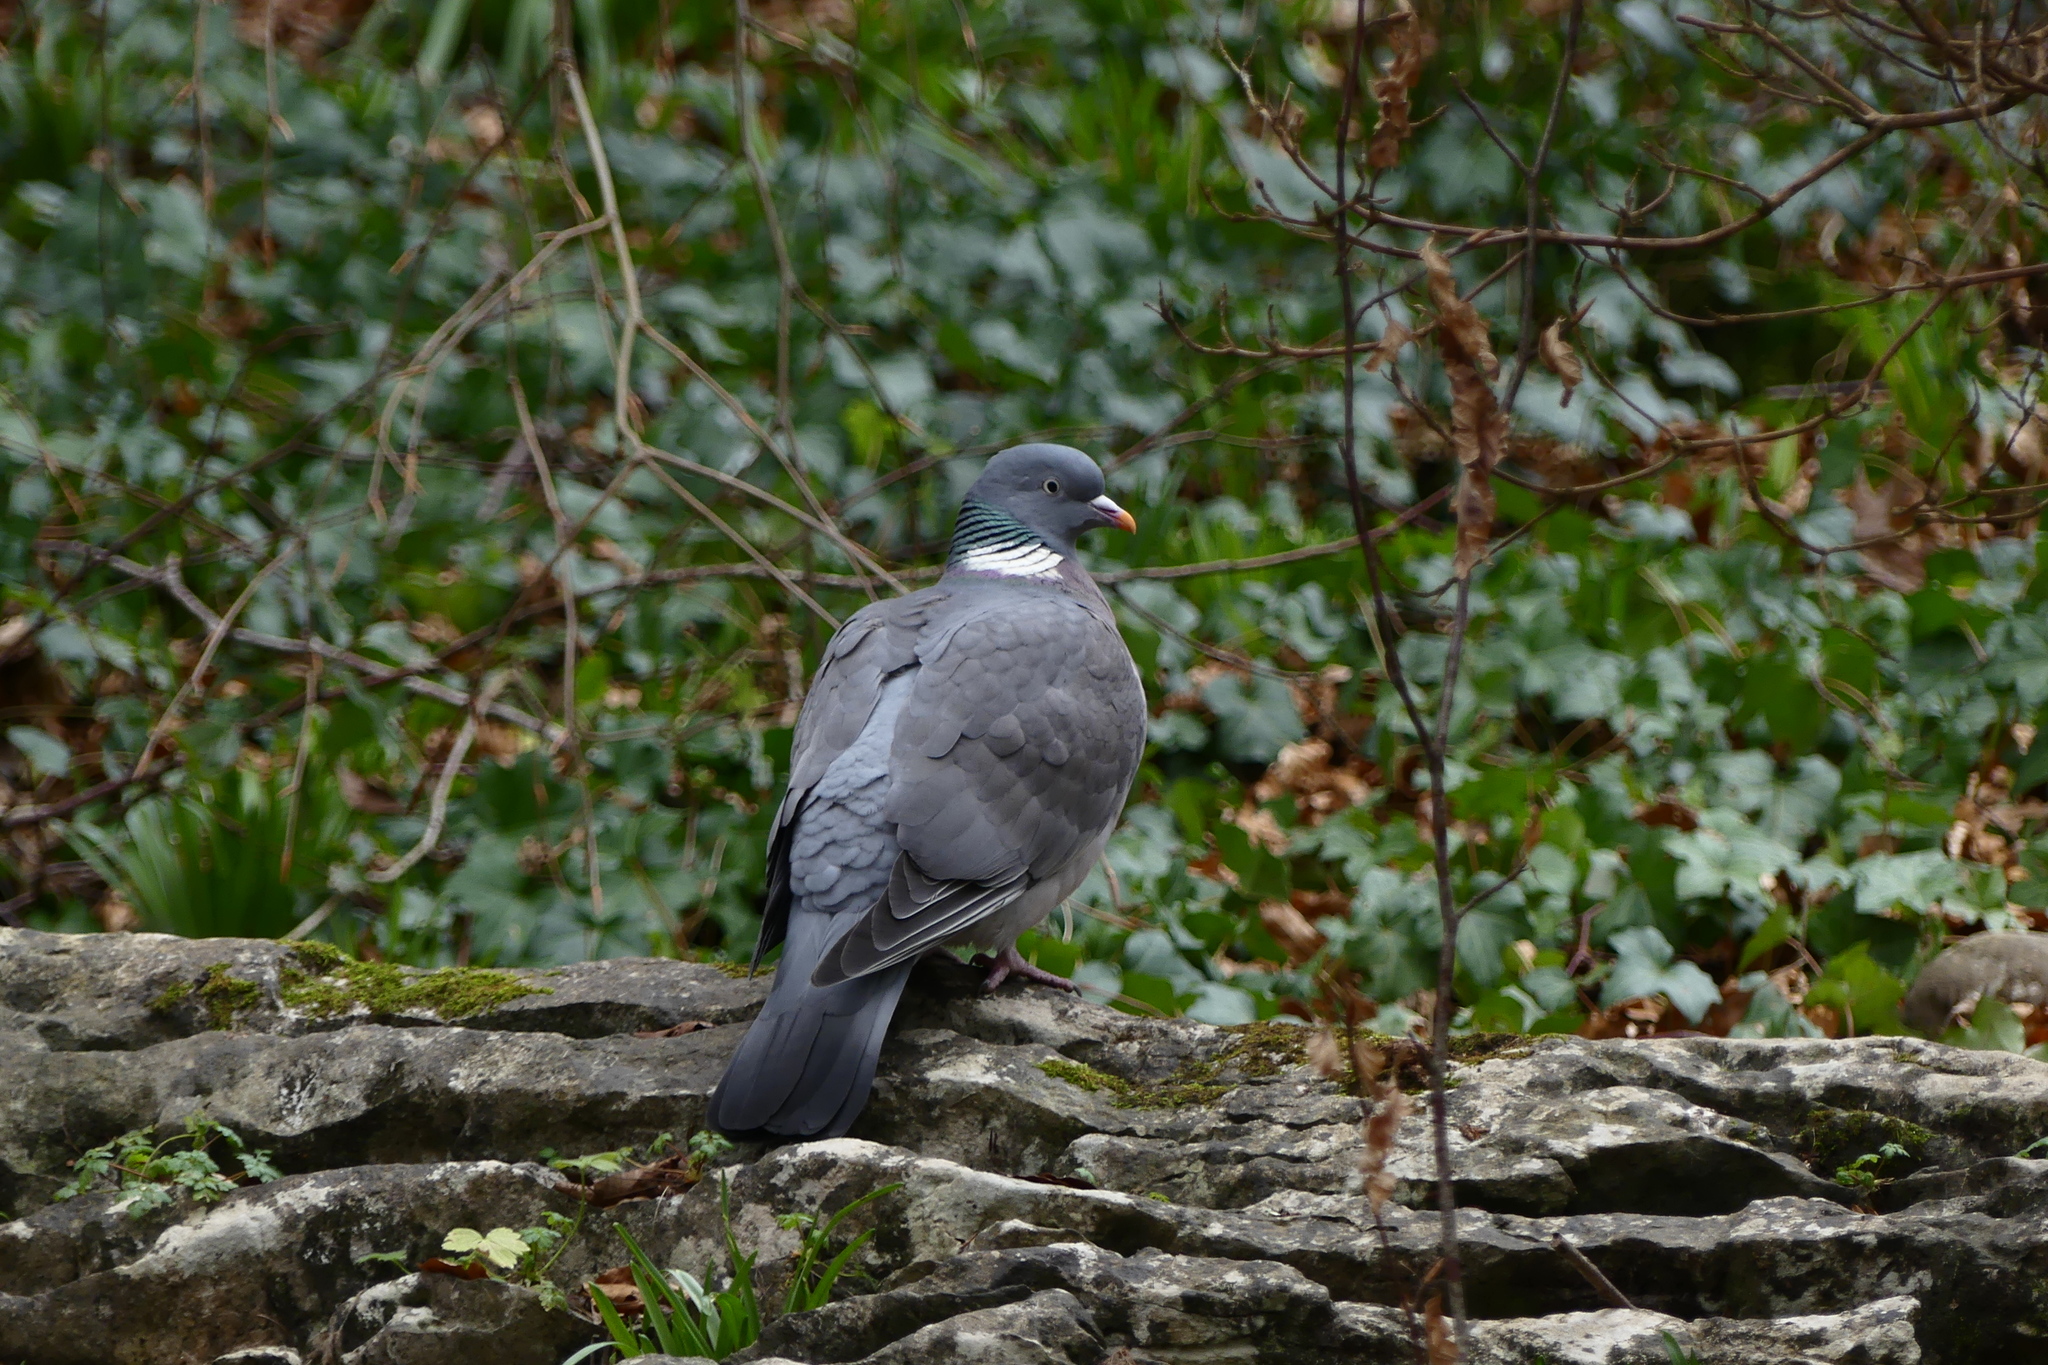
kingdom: Animalia
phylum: Chordata
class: Aves
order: Columbiformes
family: Columbidae
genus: Columba
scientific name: Columba palumbus
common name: Common wood pigeon
